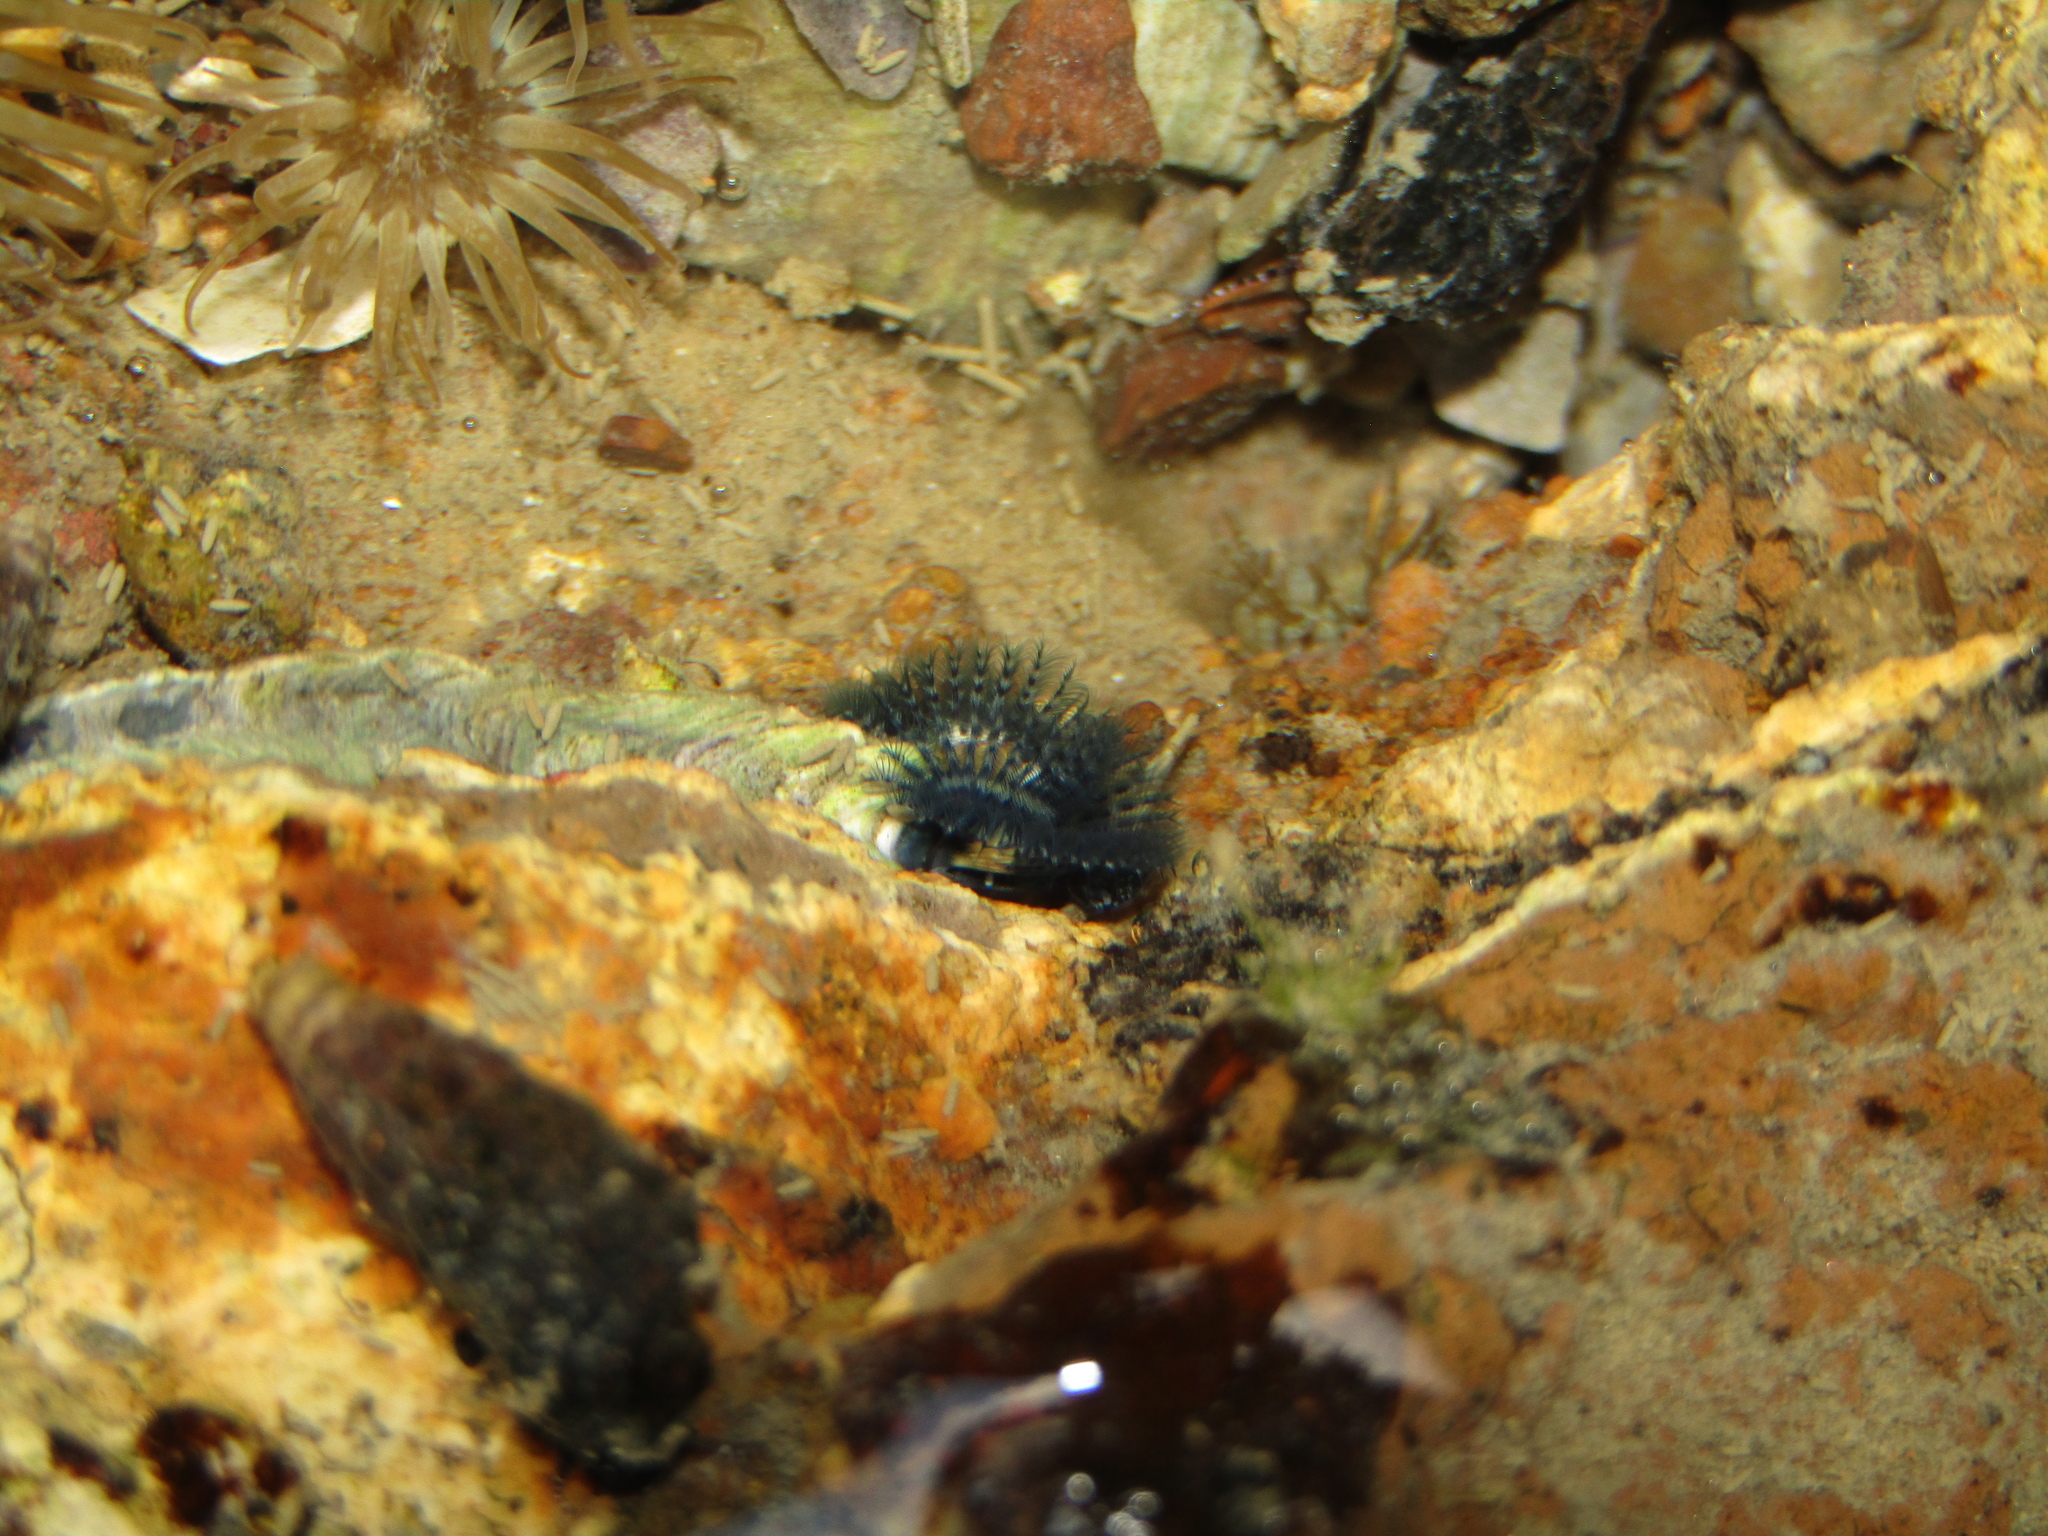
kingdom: Animalia
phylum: Annelida
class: Polychaeta
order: Sabellida
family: Serpulidae
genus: Spirobranchus
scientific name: Spirobranchus cariniferus
